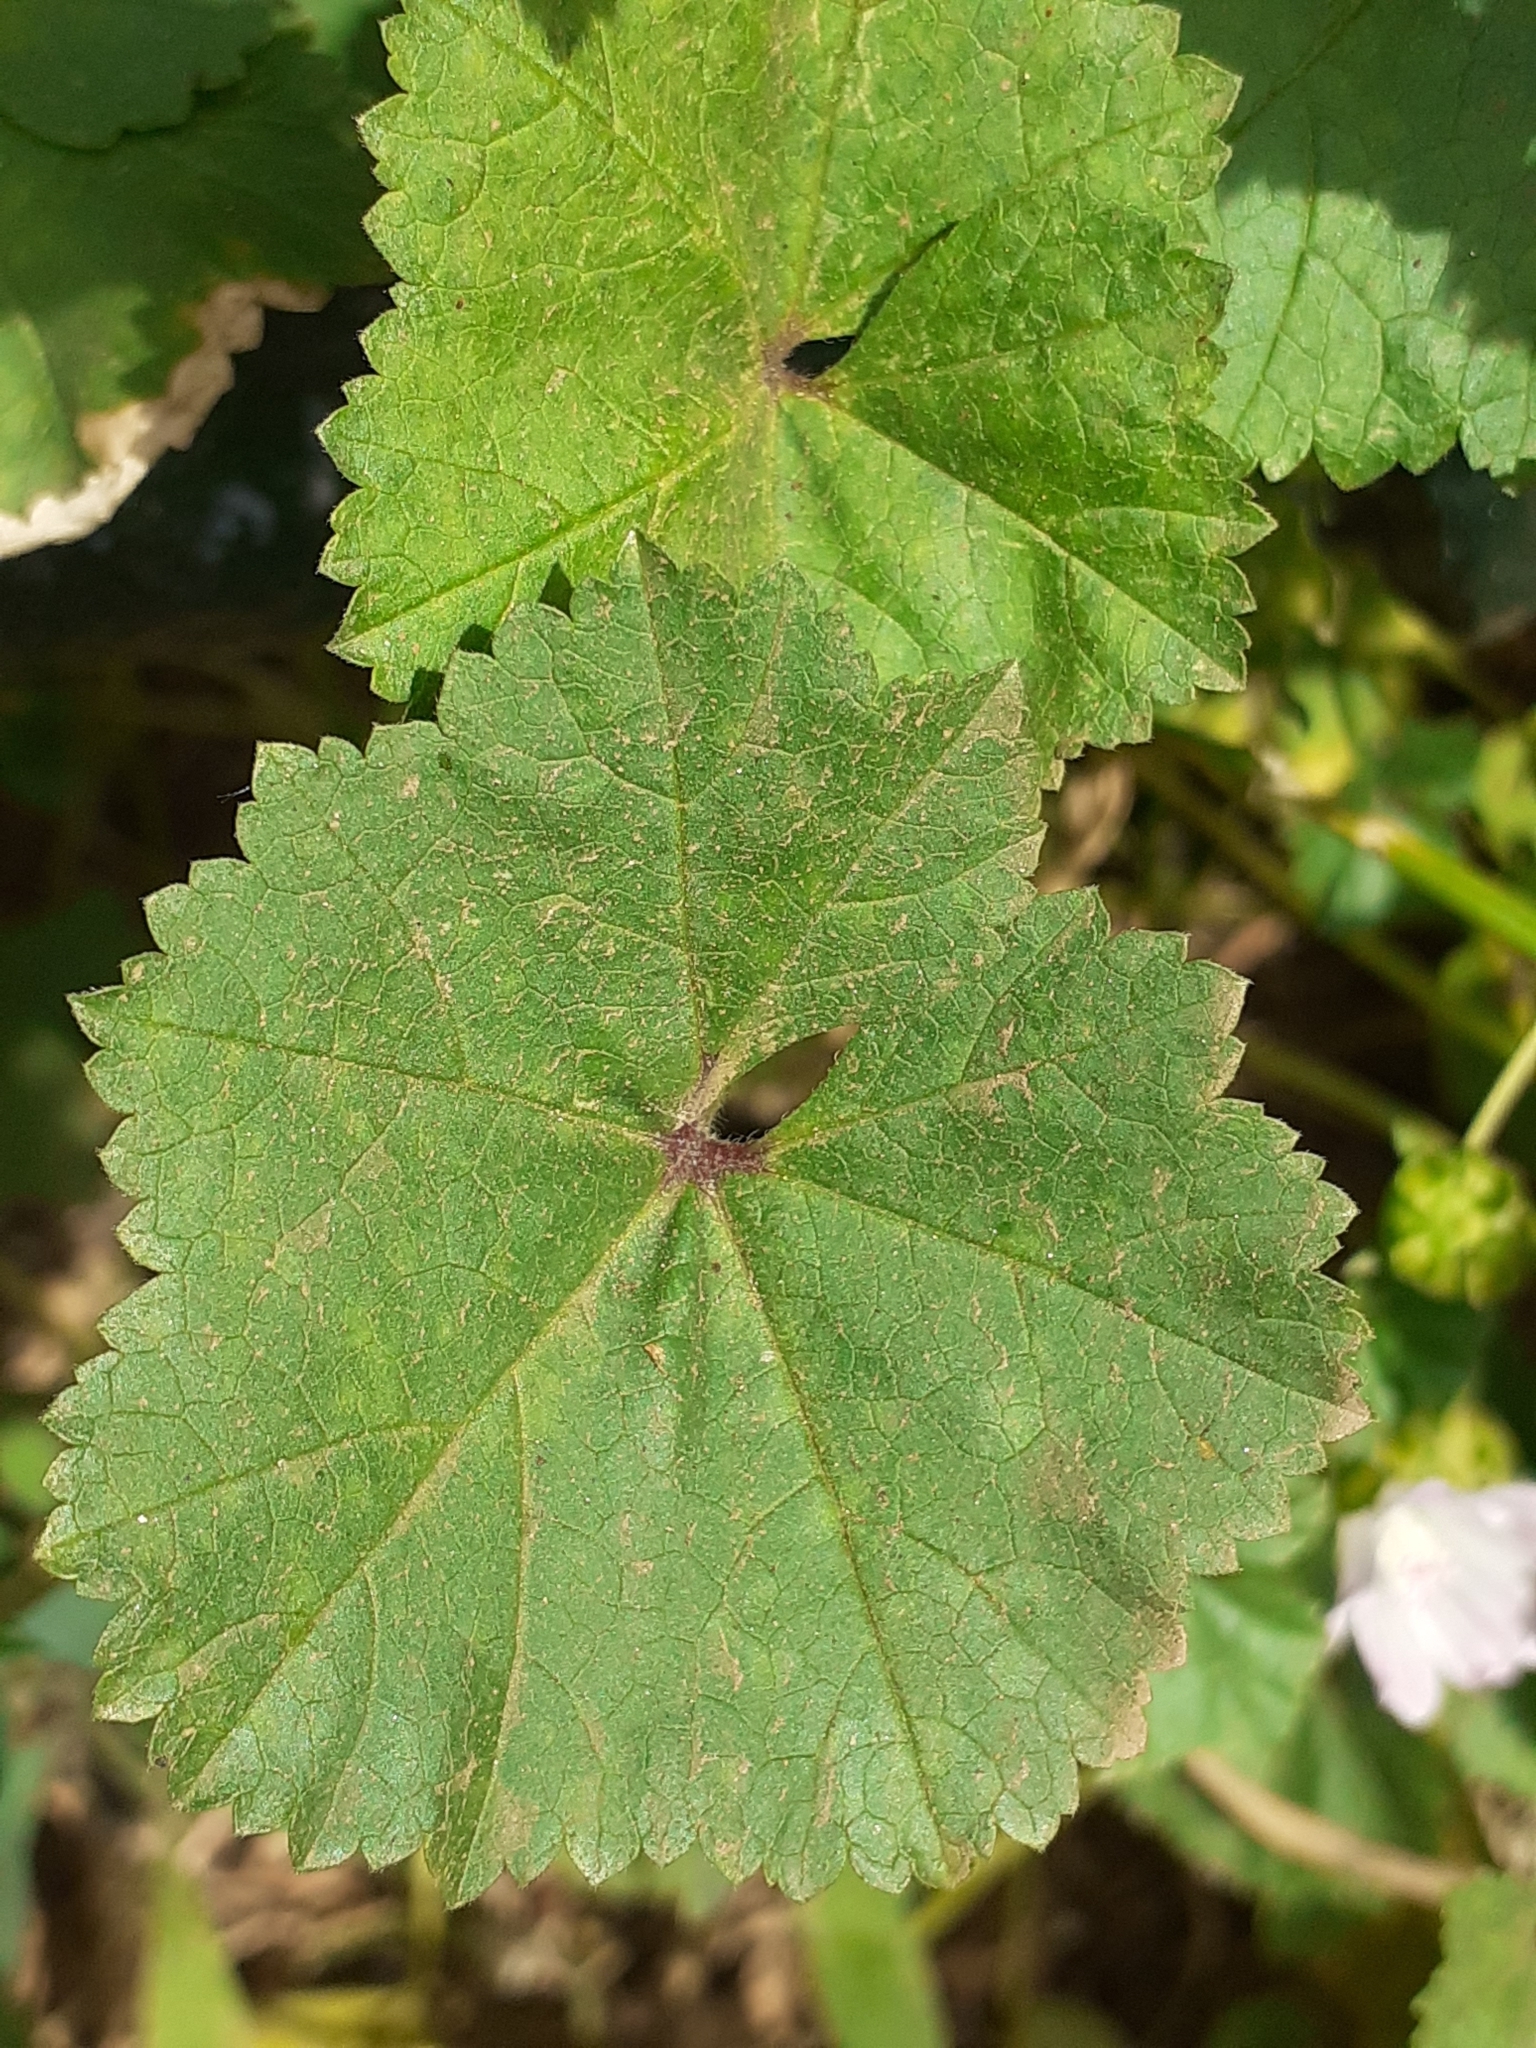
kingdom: Plantae
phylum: Tracheophyta
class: Magnoliopsida
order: Malvales
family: Malvaceae
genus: Malva
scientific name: Malva neglecta
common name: Common mallow
